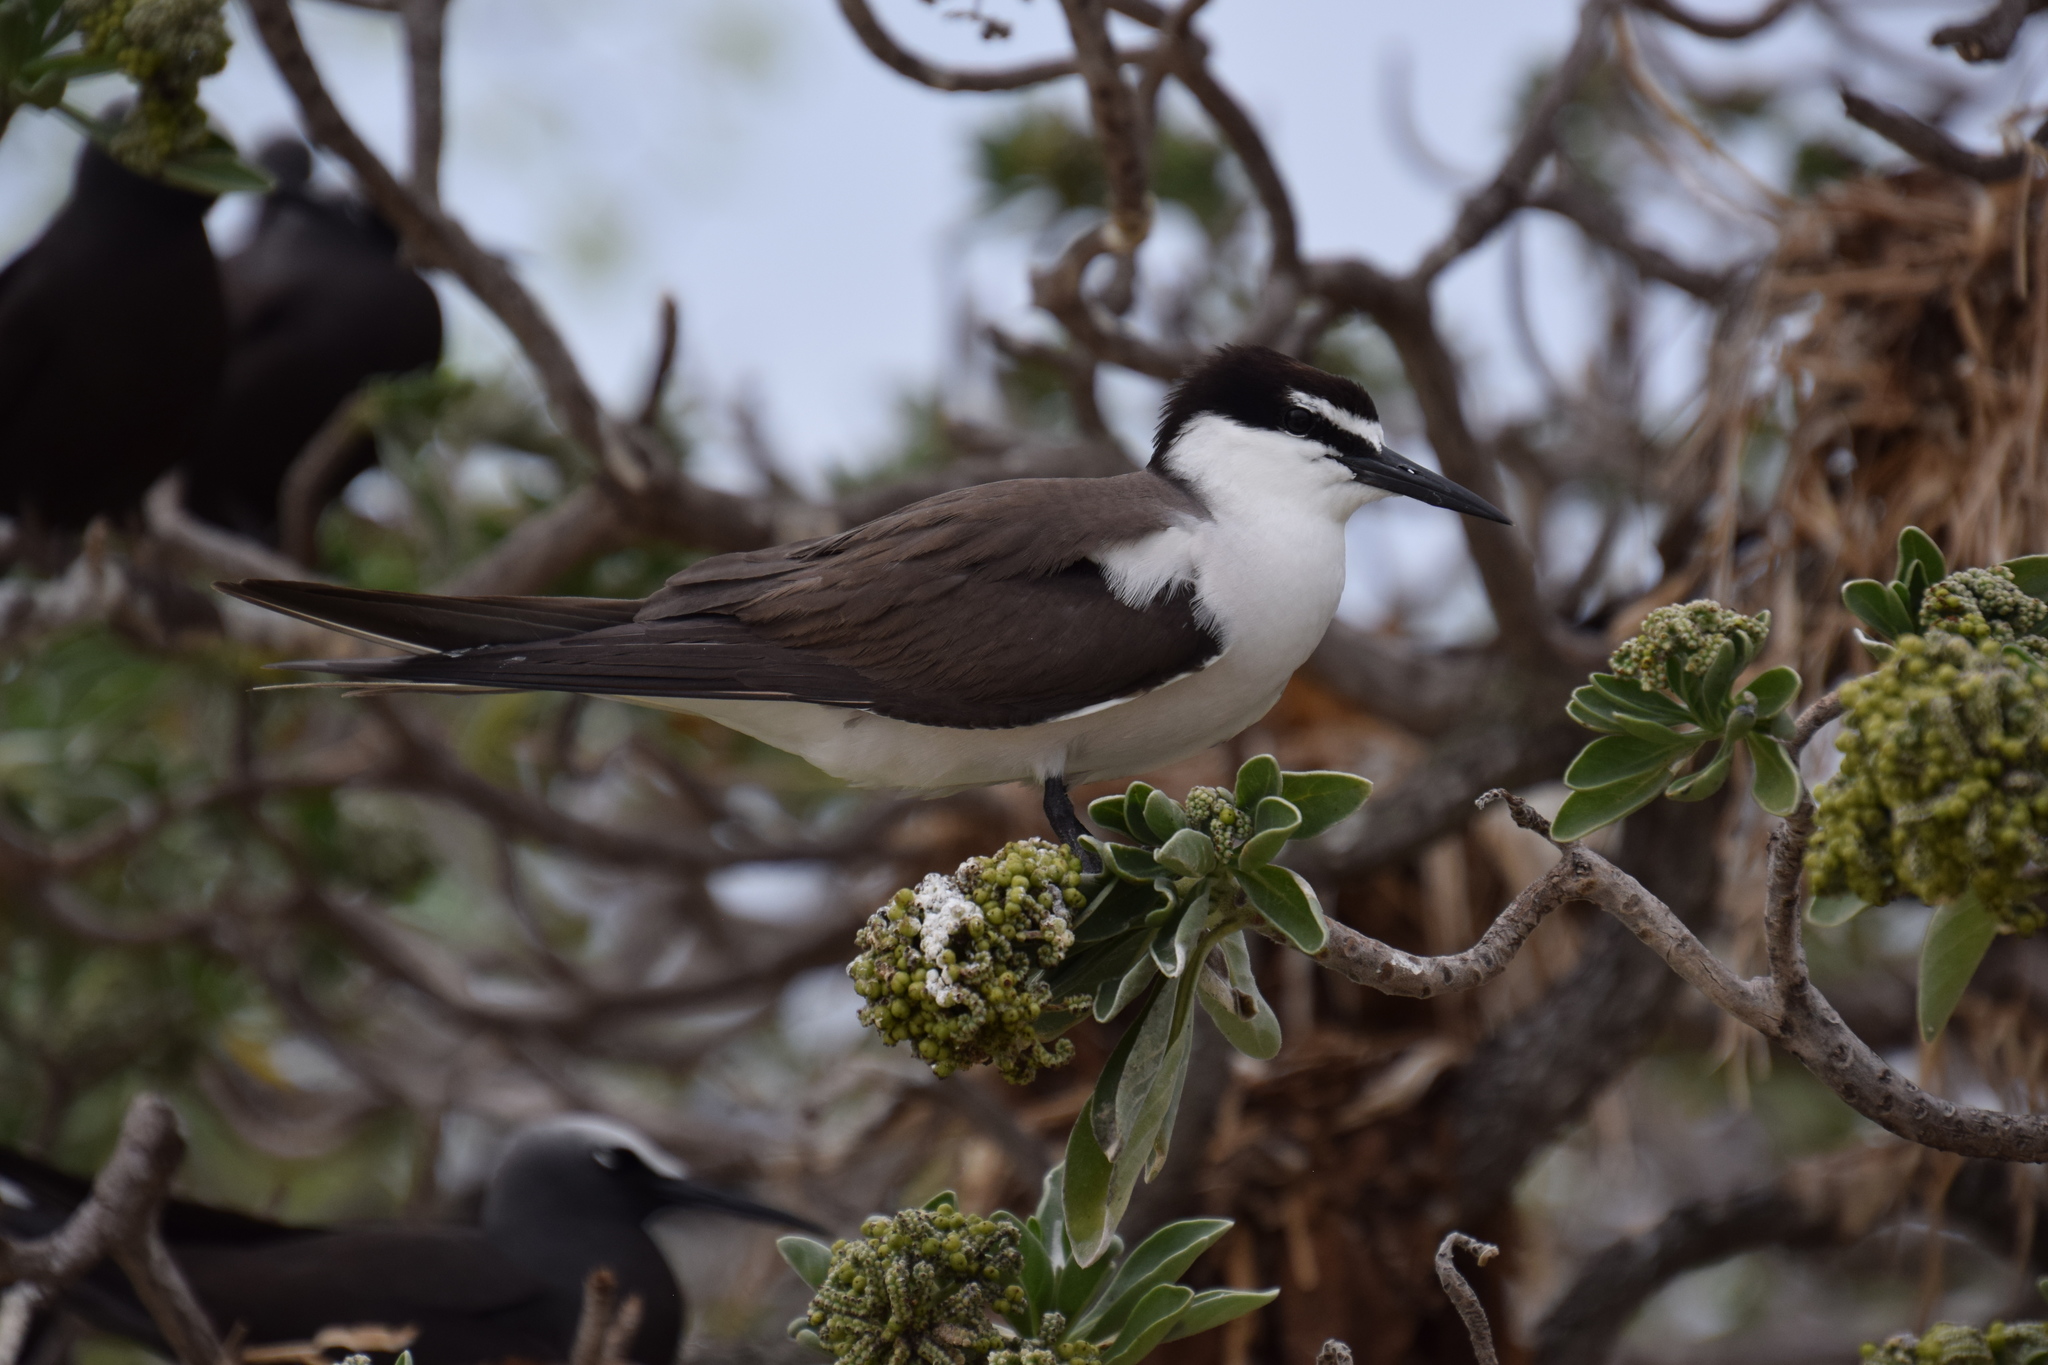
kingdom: Animalia
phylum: Chordata
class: Aves
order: Charadriiformes
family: Laridae
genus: Onychoprion
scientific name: Onychoprion anaethetus
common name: Bridled tern
